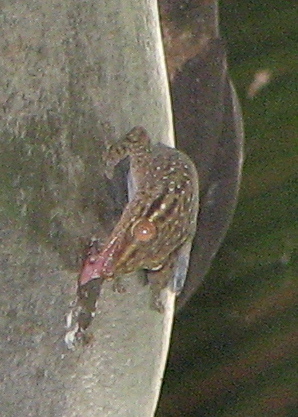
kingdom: Animalia
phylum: Chordata
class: Squamata
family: Gekkonidae
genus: Ailuronyx
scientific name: Ailuronyx tachyscopaeus
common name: Dwarf bronze gecko
